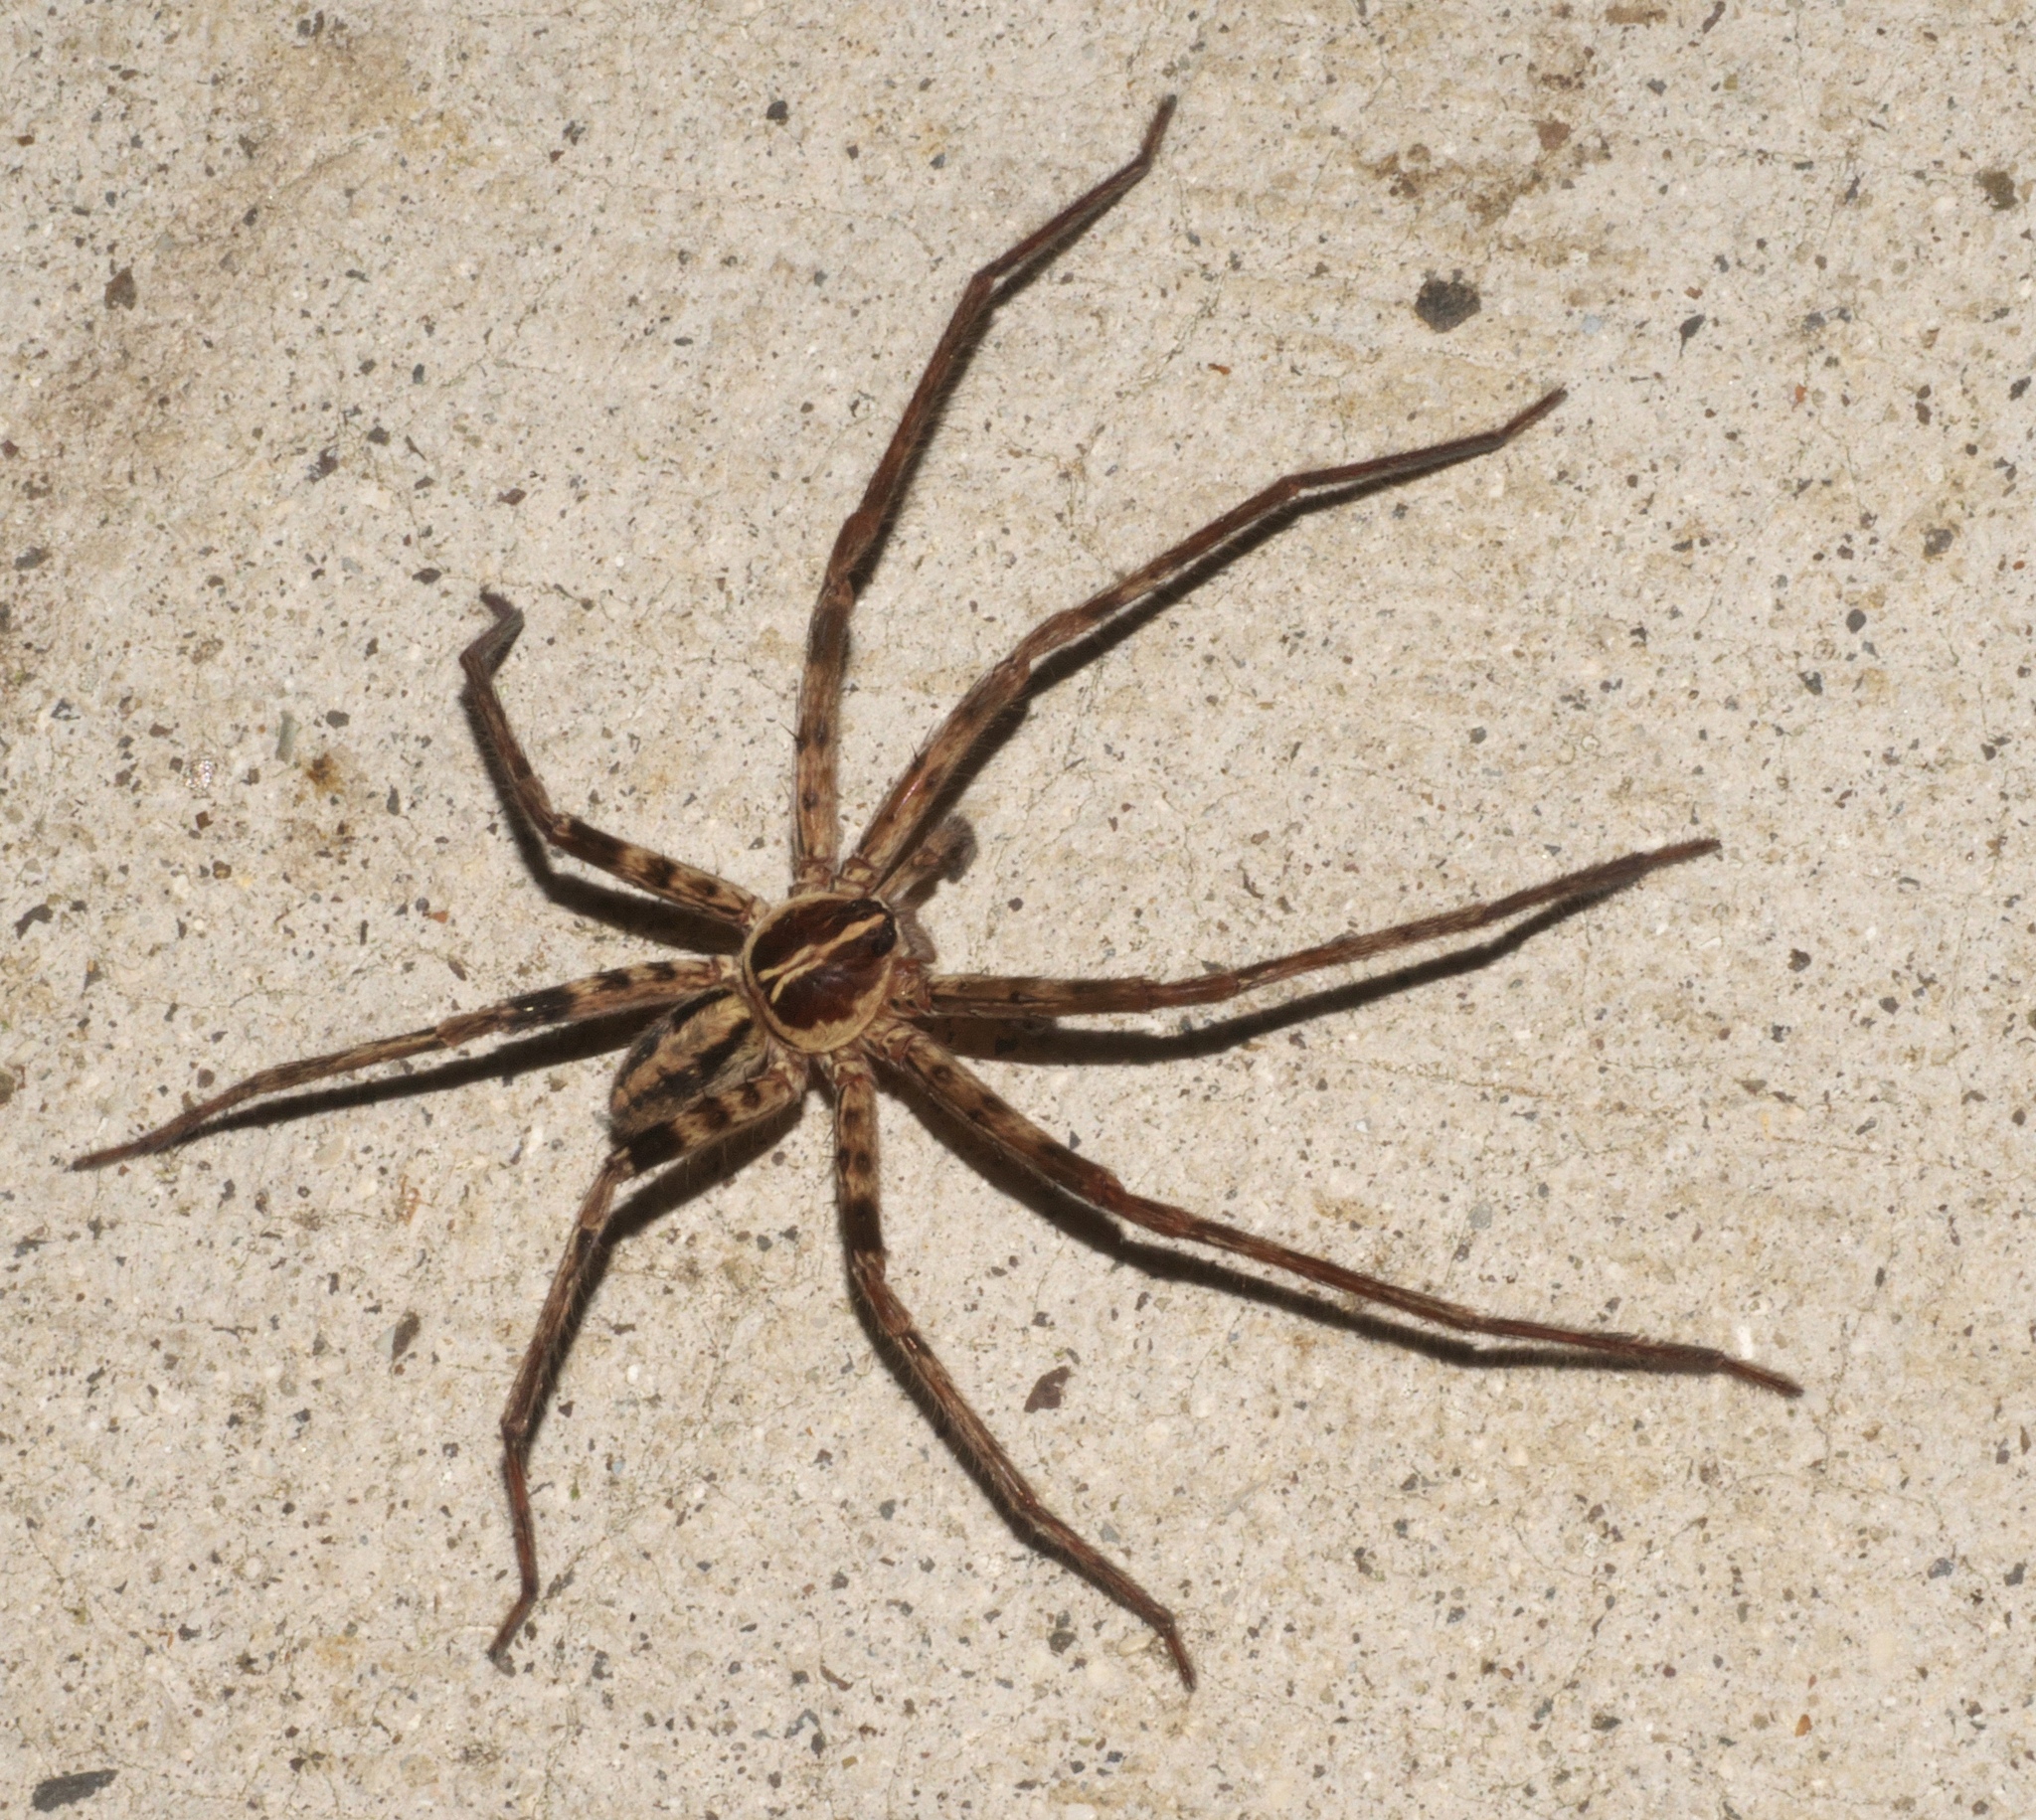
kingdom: Animalia
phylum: Arthropoda
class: Arachnida
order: Araneae
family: Sparassidae
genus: Heteropoda
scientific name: Heteropoda venatoria
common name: Huntsman spider
